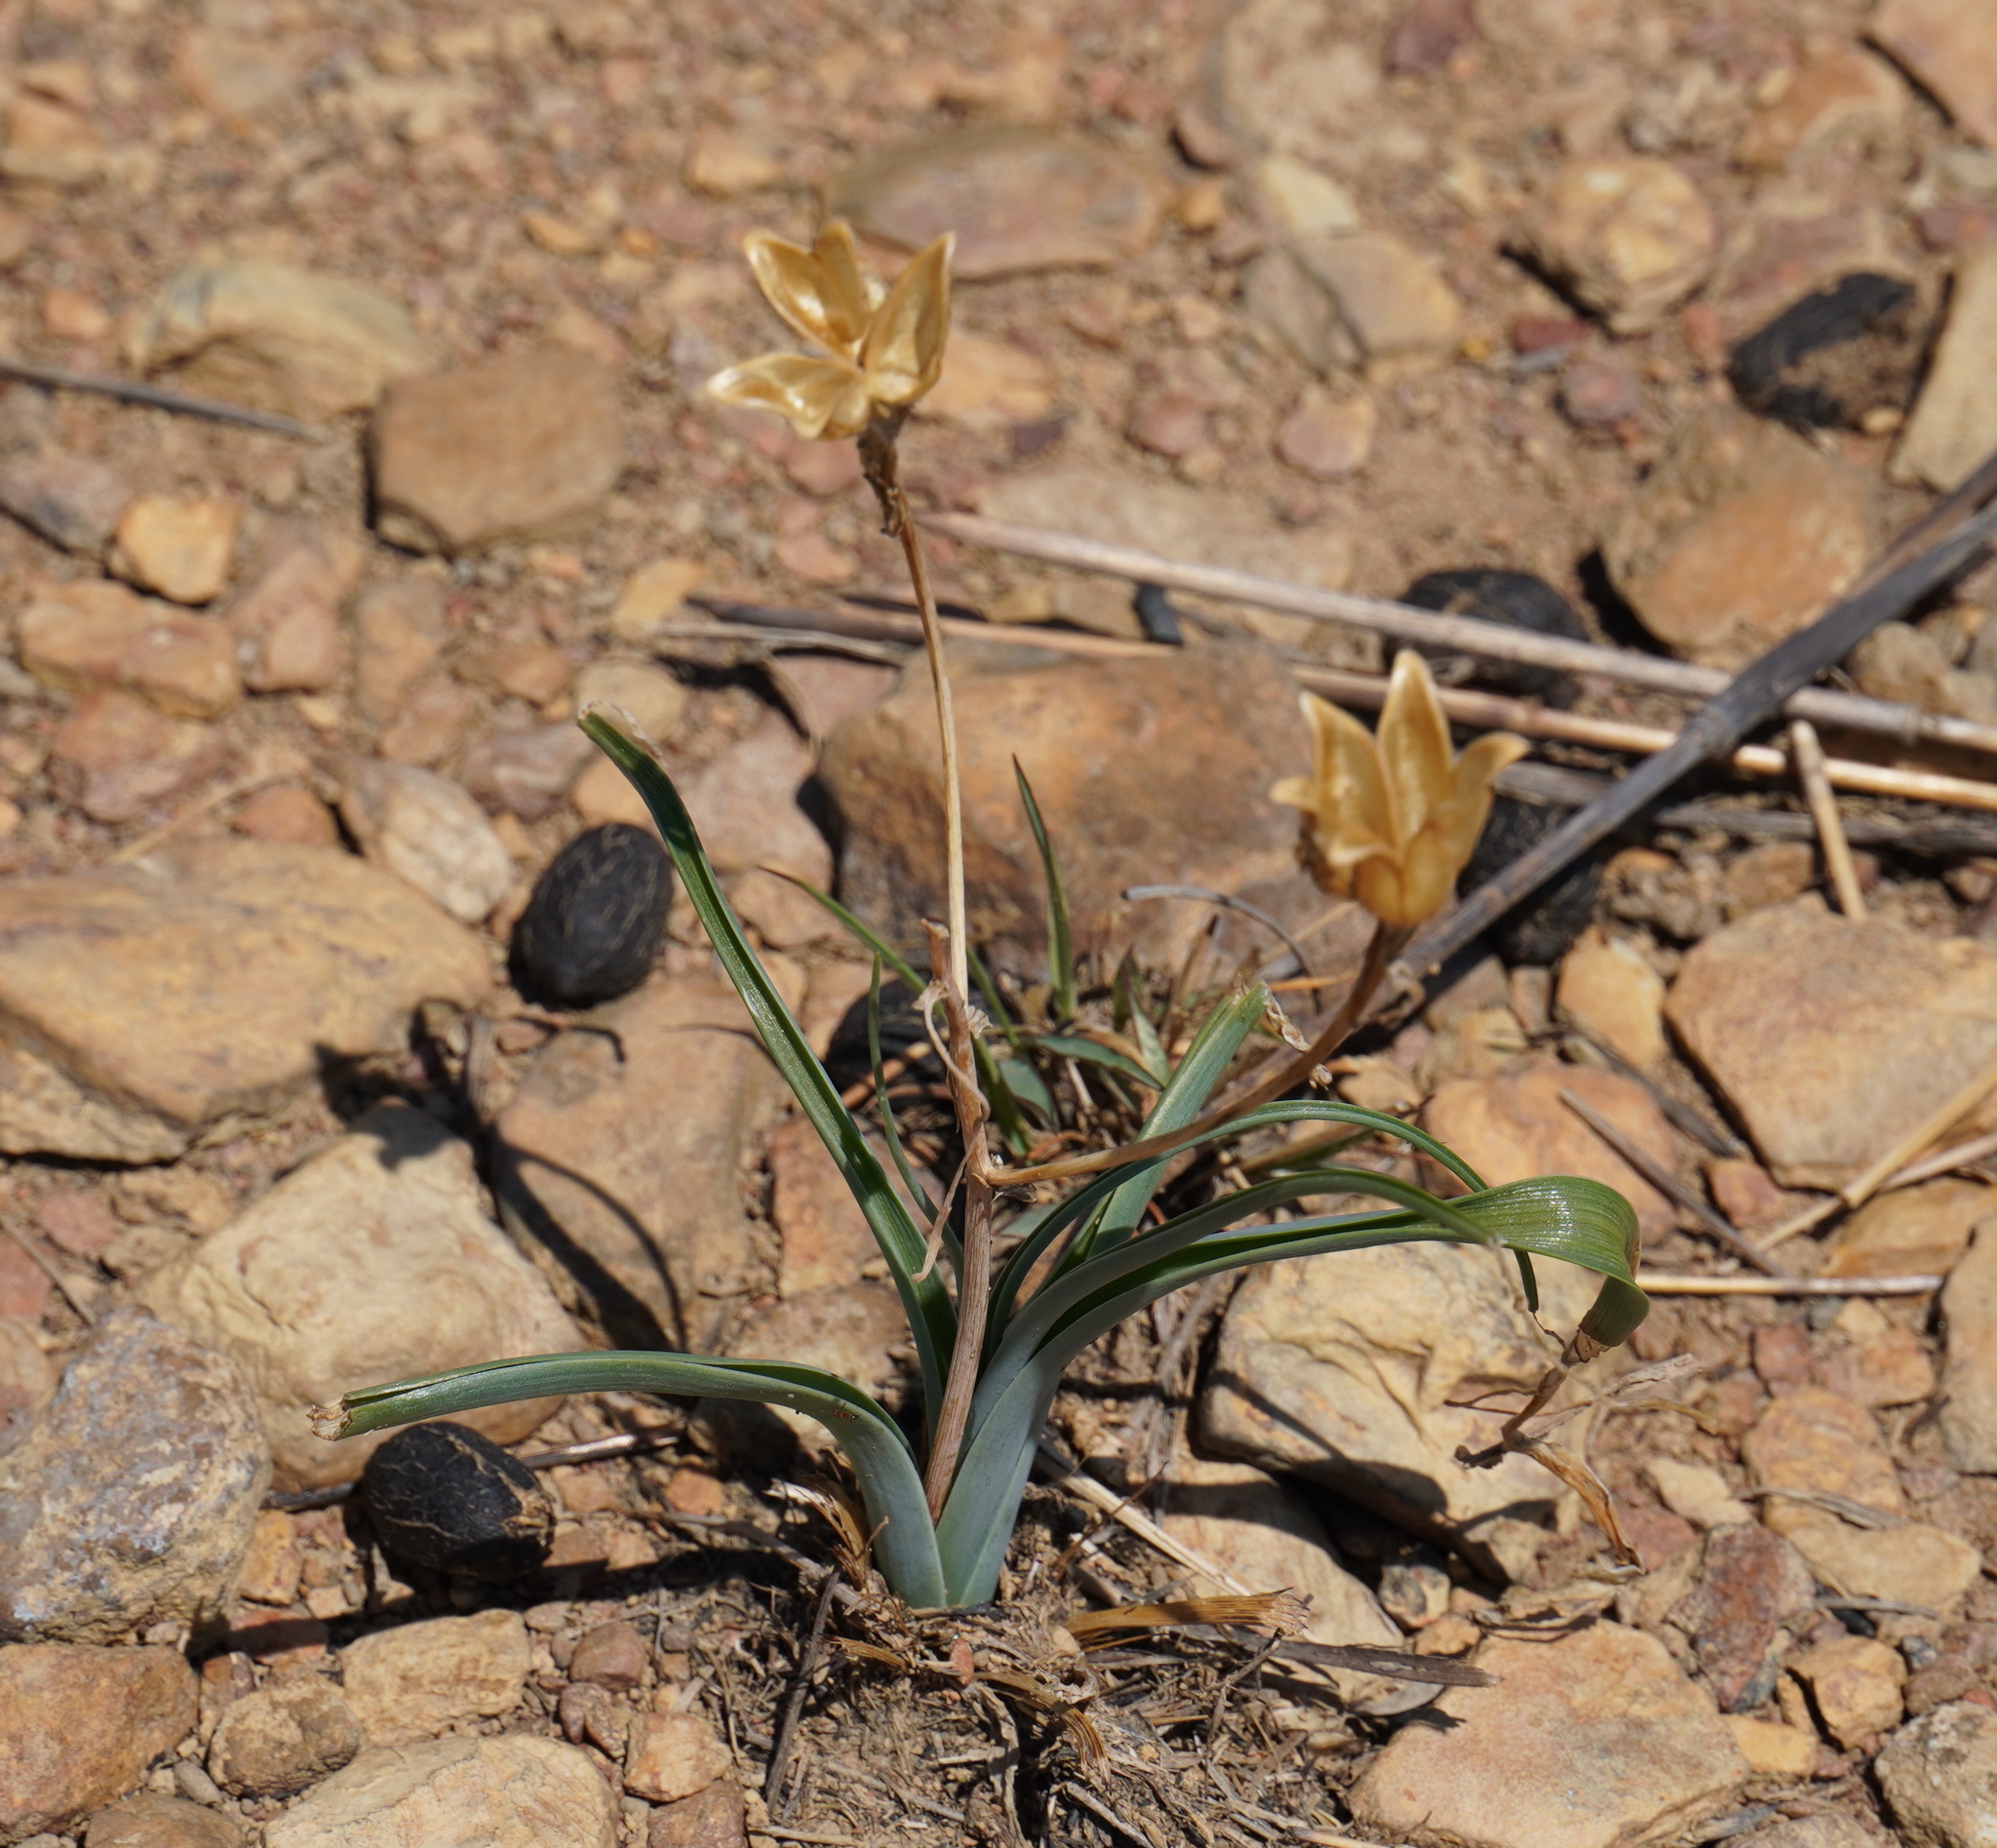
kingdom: Plantae
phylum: Tracheophyta
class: Liliopsida
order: Liliales
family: Colchicaceae
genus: Ornithoglossum
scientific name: Ornithoglossum vulgare
